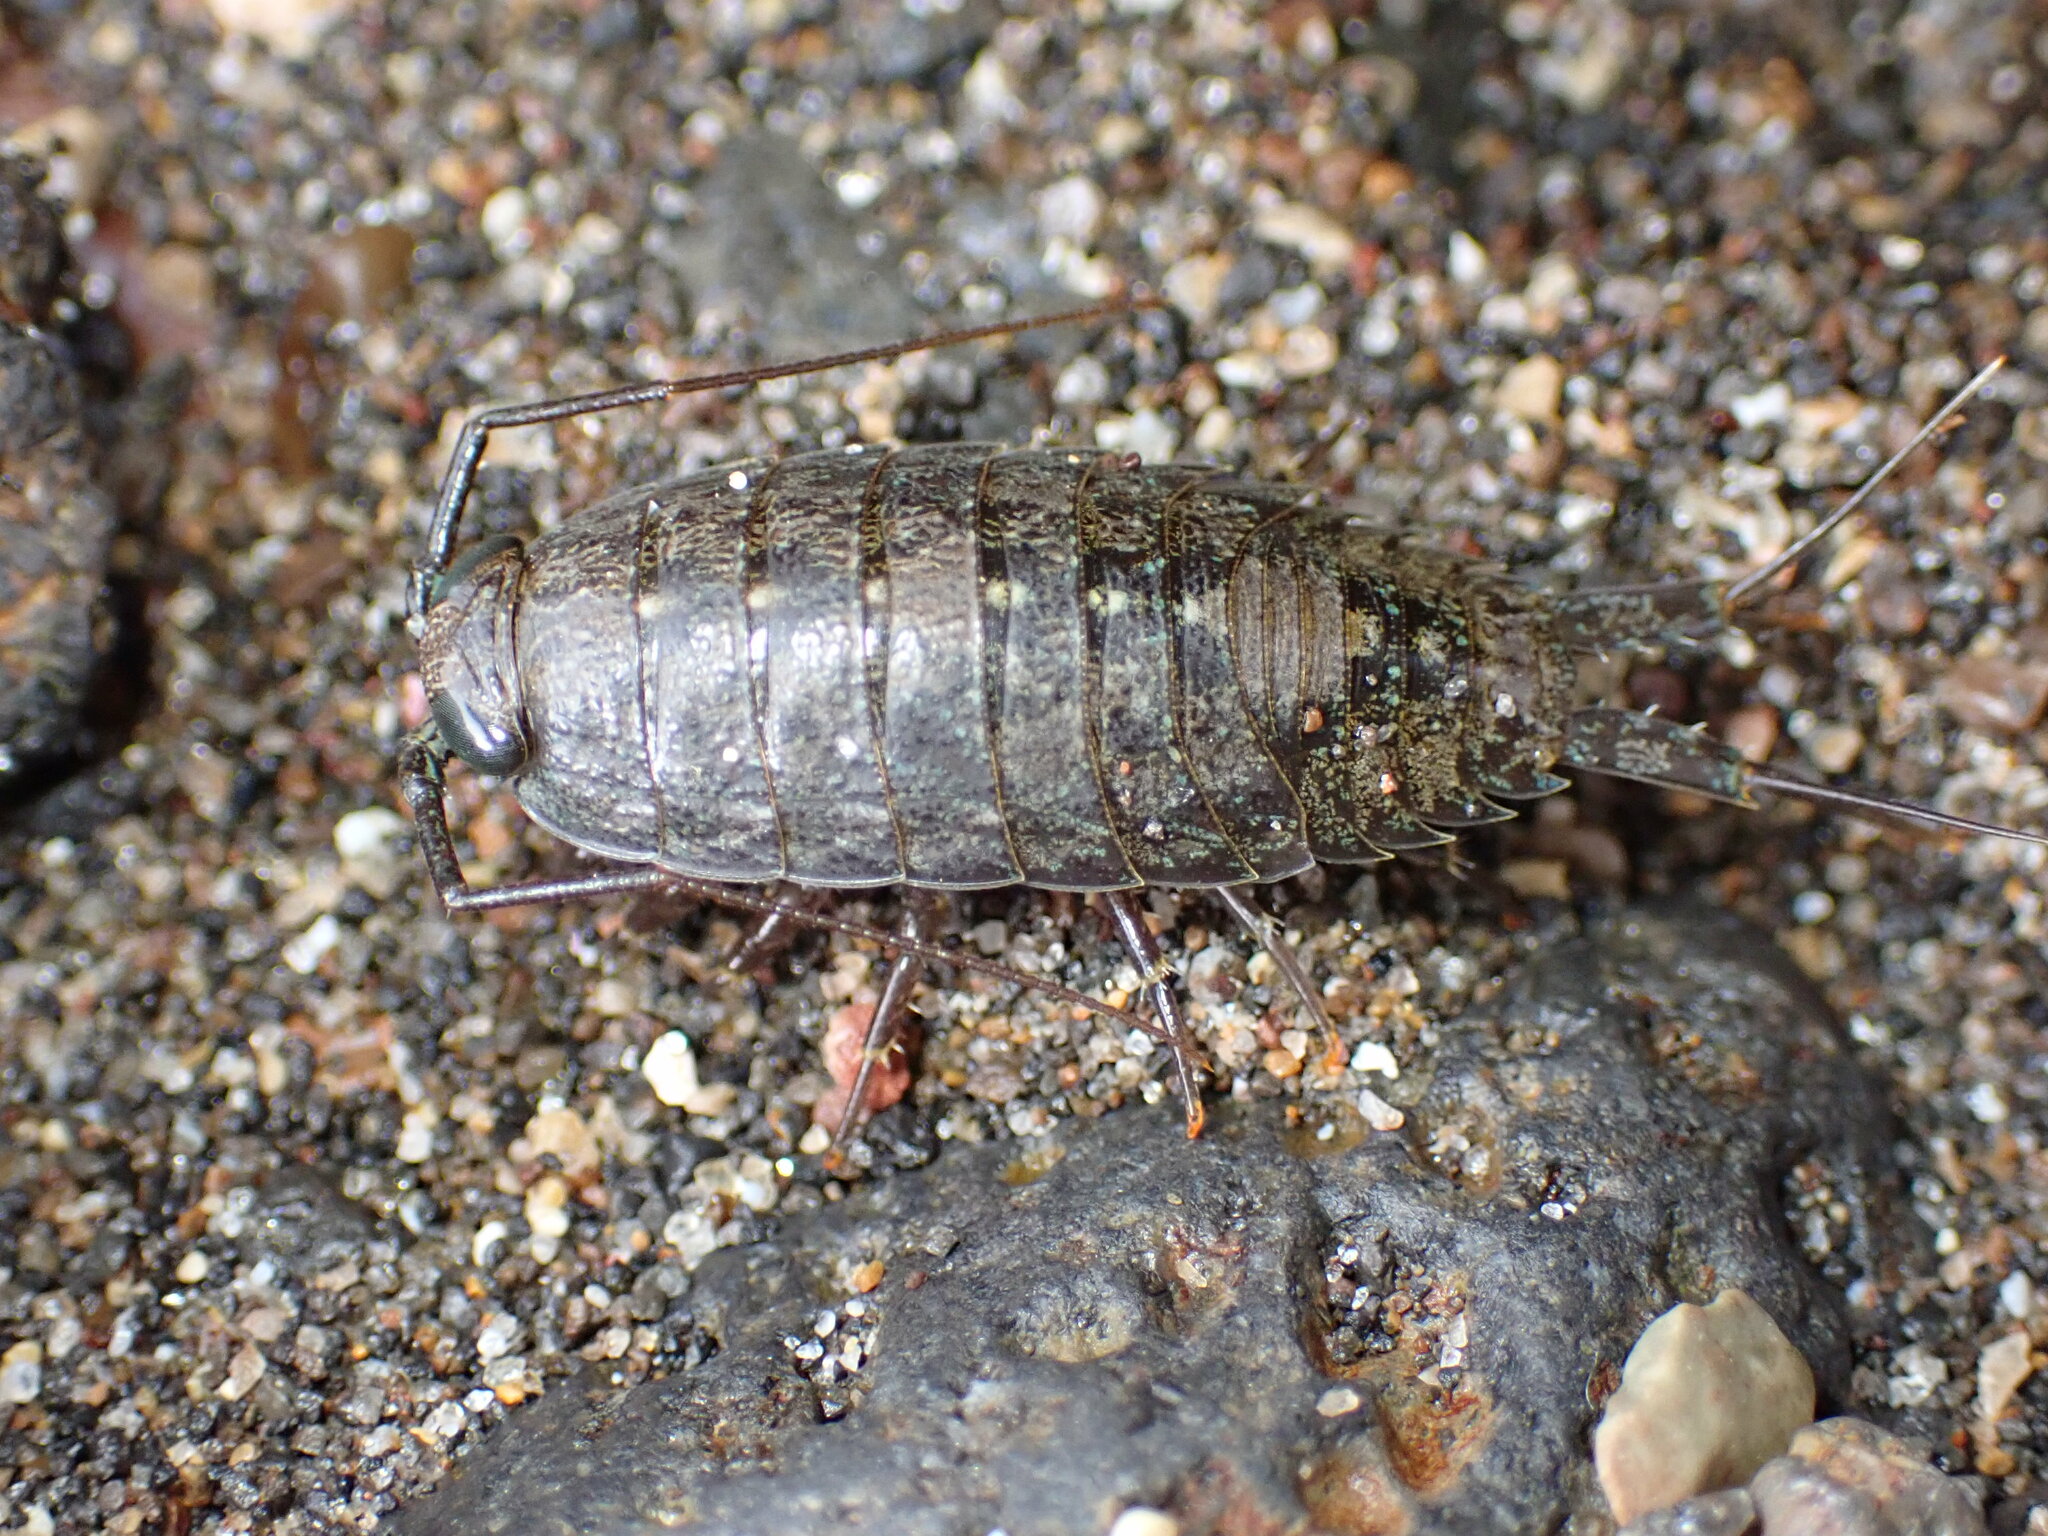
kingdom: Animalia
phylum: Arthropoda
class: Malacostraca
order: Isopoda
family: Ligiidae
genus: Ligia
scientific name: Ligia occidentalis
